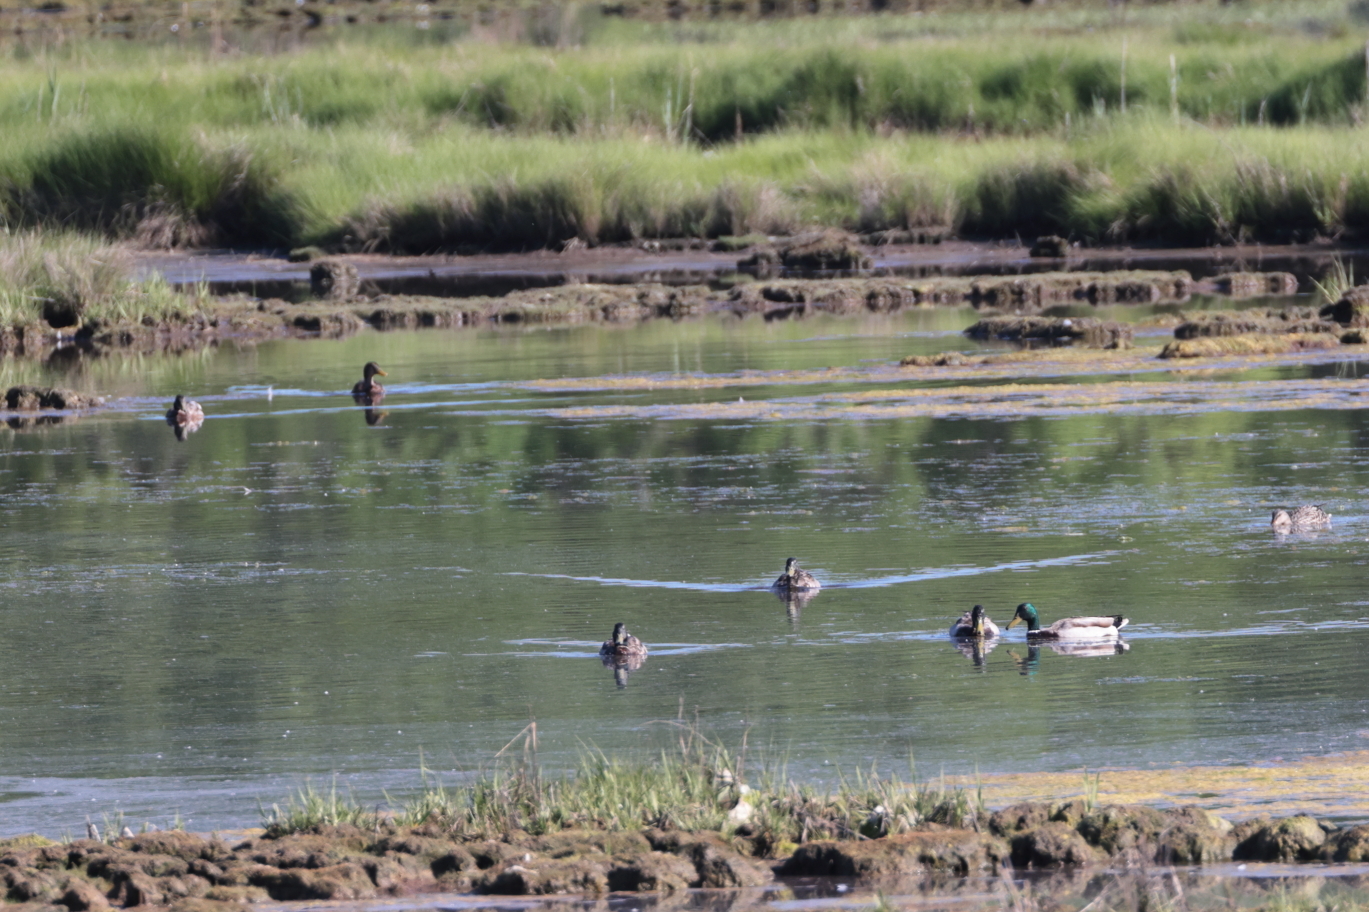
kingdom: Animalia
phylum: Chordata
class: Aves
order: Anseriformes
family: Anatidae
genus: Anas
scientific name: Anas platyrhynchos
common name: Mallard
